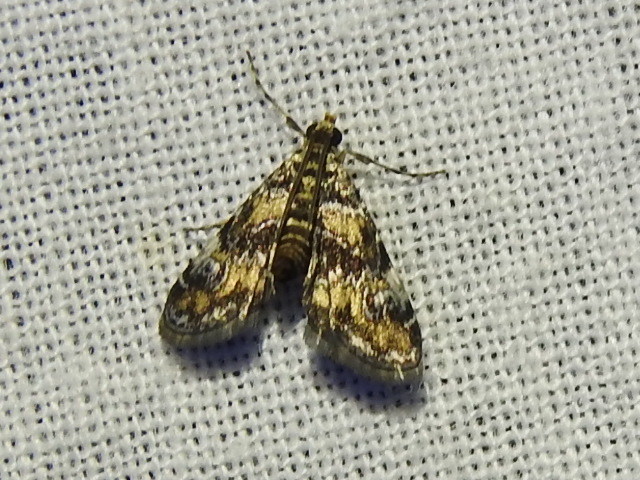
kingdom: Animalia
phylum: Arthropoda
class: Insecta
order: Lepidoptera
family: Crambidae
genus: Elophila
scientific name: Elophila obliteralis
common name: Waterlily leafcutter moth
